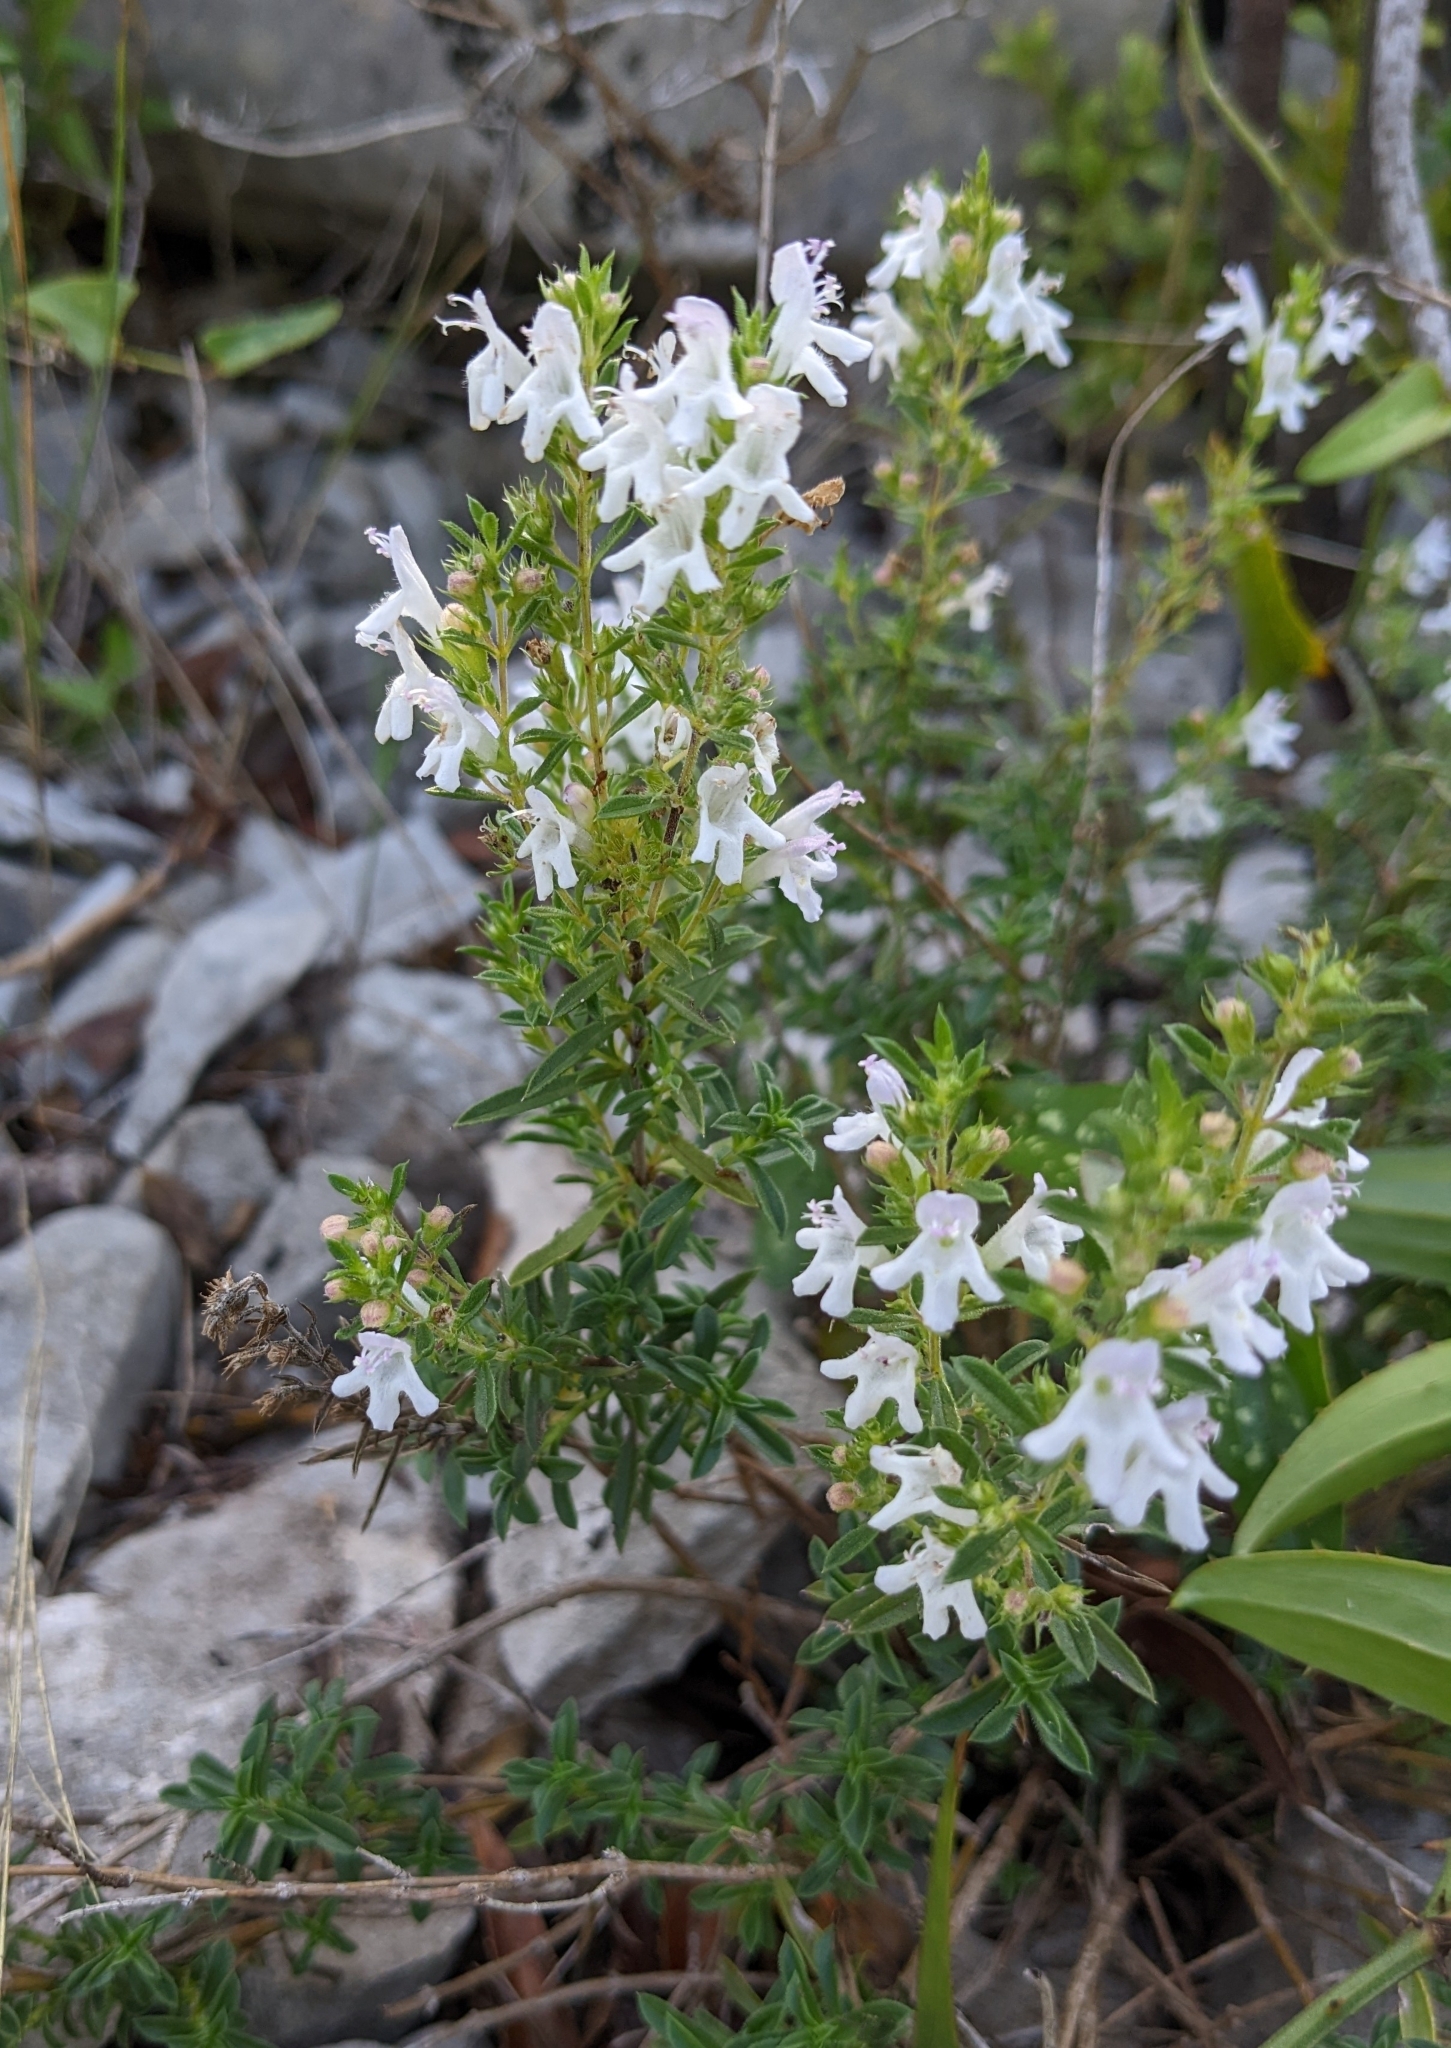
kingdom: Plantae
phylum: Tracheophyta
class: Magnoliopsida
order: Lamiales
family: Lamiaceae
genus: Satureja
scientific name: Satureja montana
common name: Winter savory
